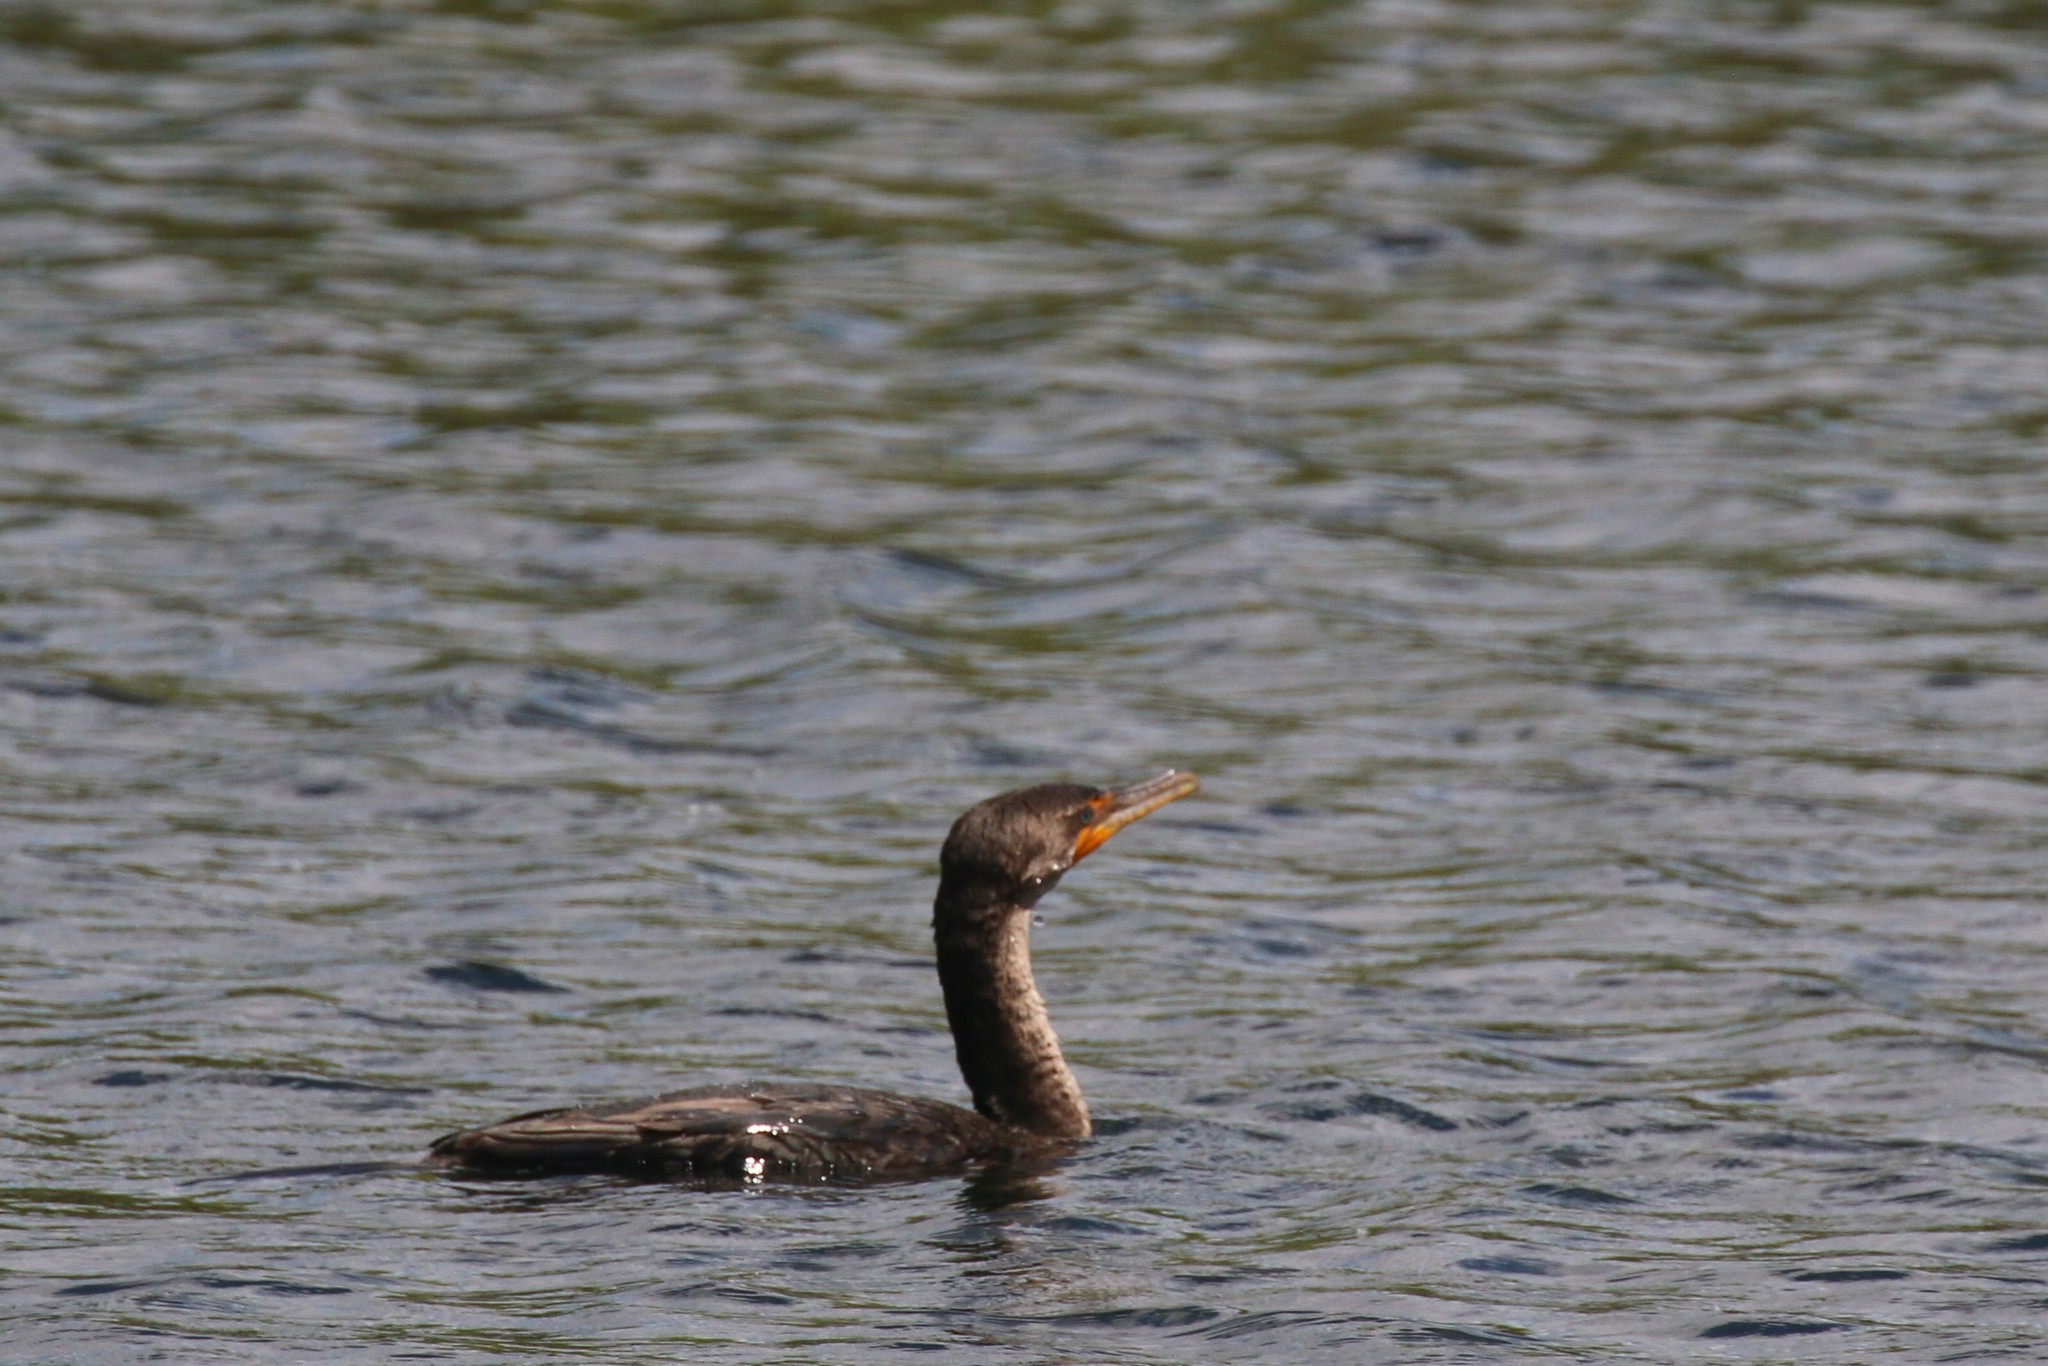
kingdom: Animalia
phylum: Chordata
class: Aves
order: Suliformes
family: Phalacrocoracidae
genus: Phalacrocorax
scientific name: Phalacrocorax auritus
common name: Double-crested cormorant
